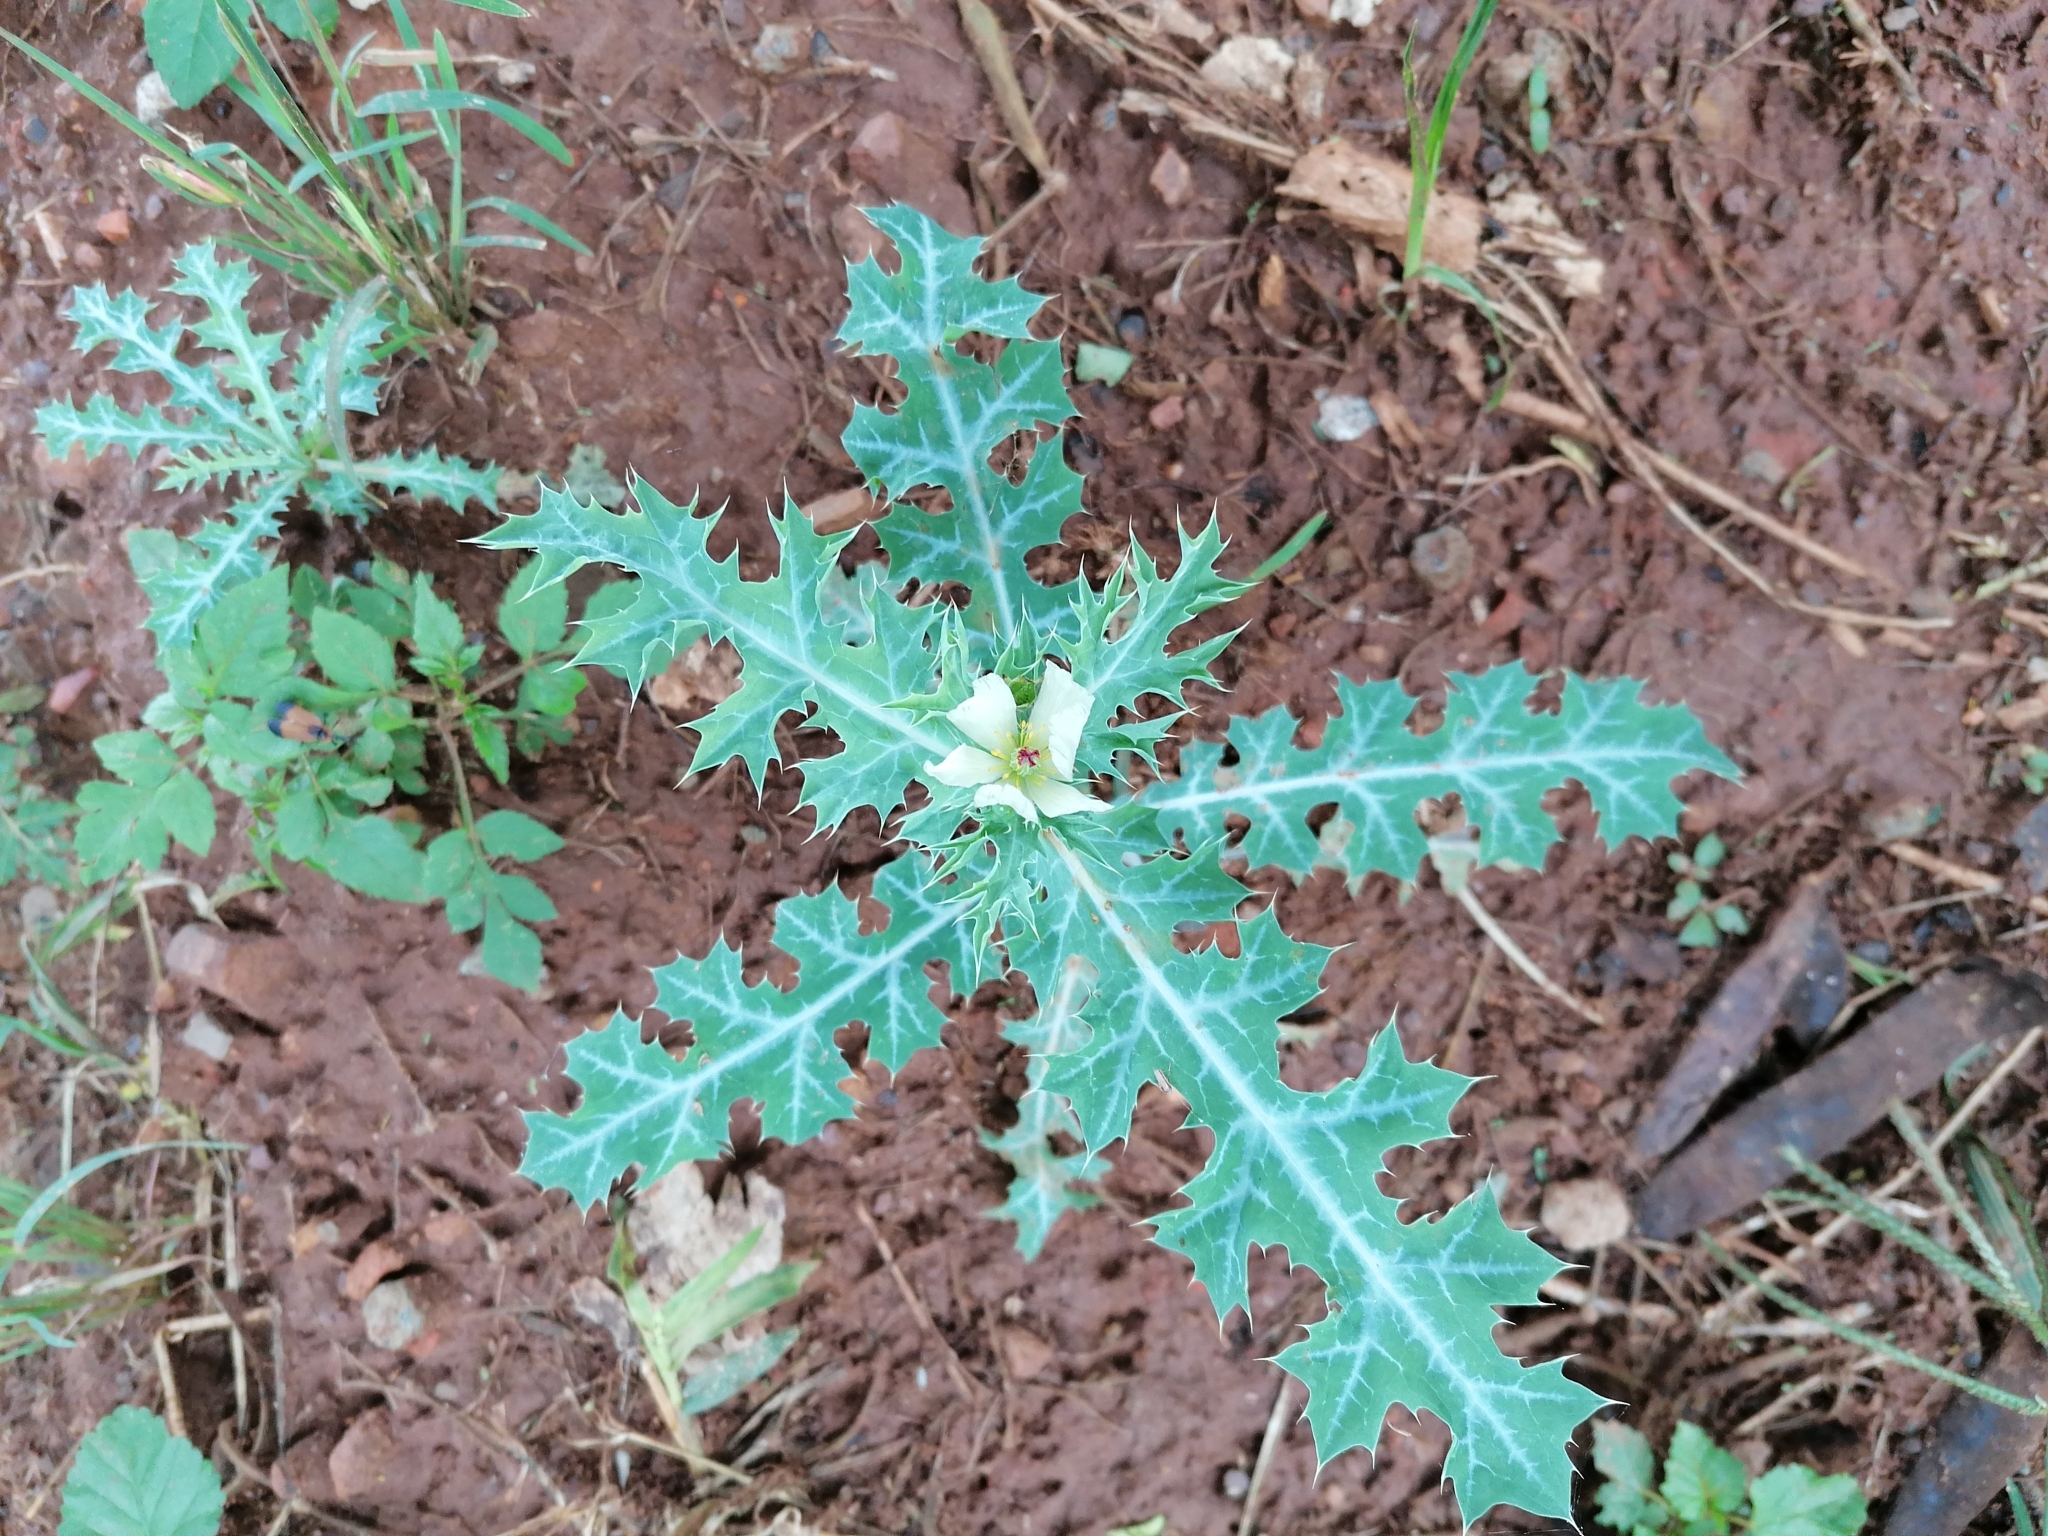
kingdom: Plantae
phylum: Tracheophyta
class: Magnoliopsida
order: Ranunculales
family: Papaveraceae
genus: Argemone
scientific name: Argemone ochroleuca
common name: White-flower mexican-poppy
